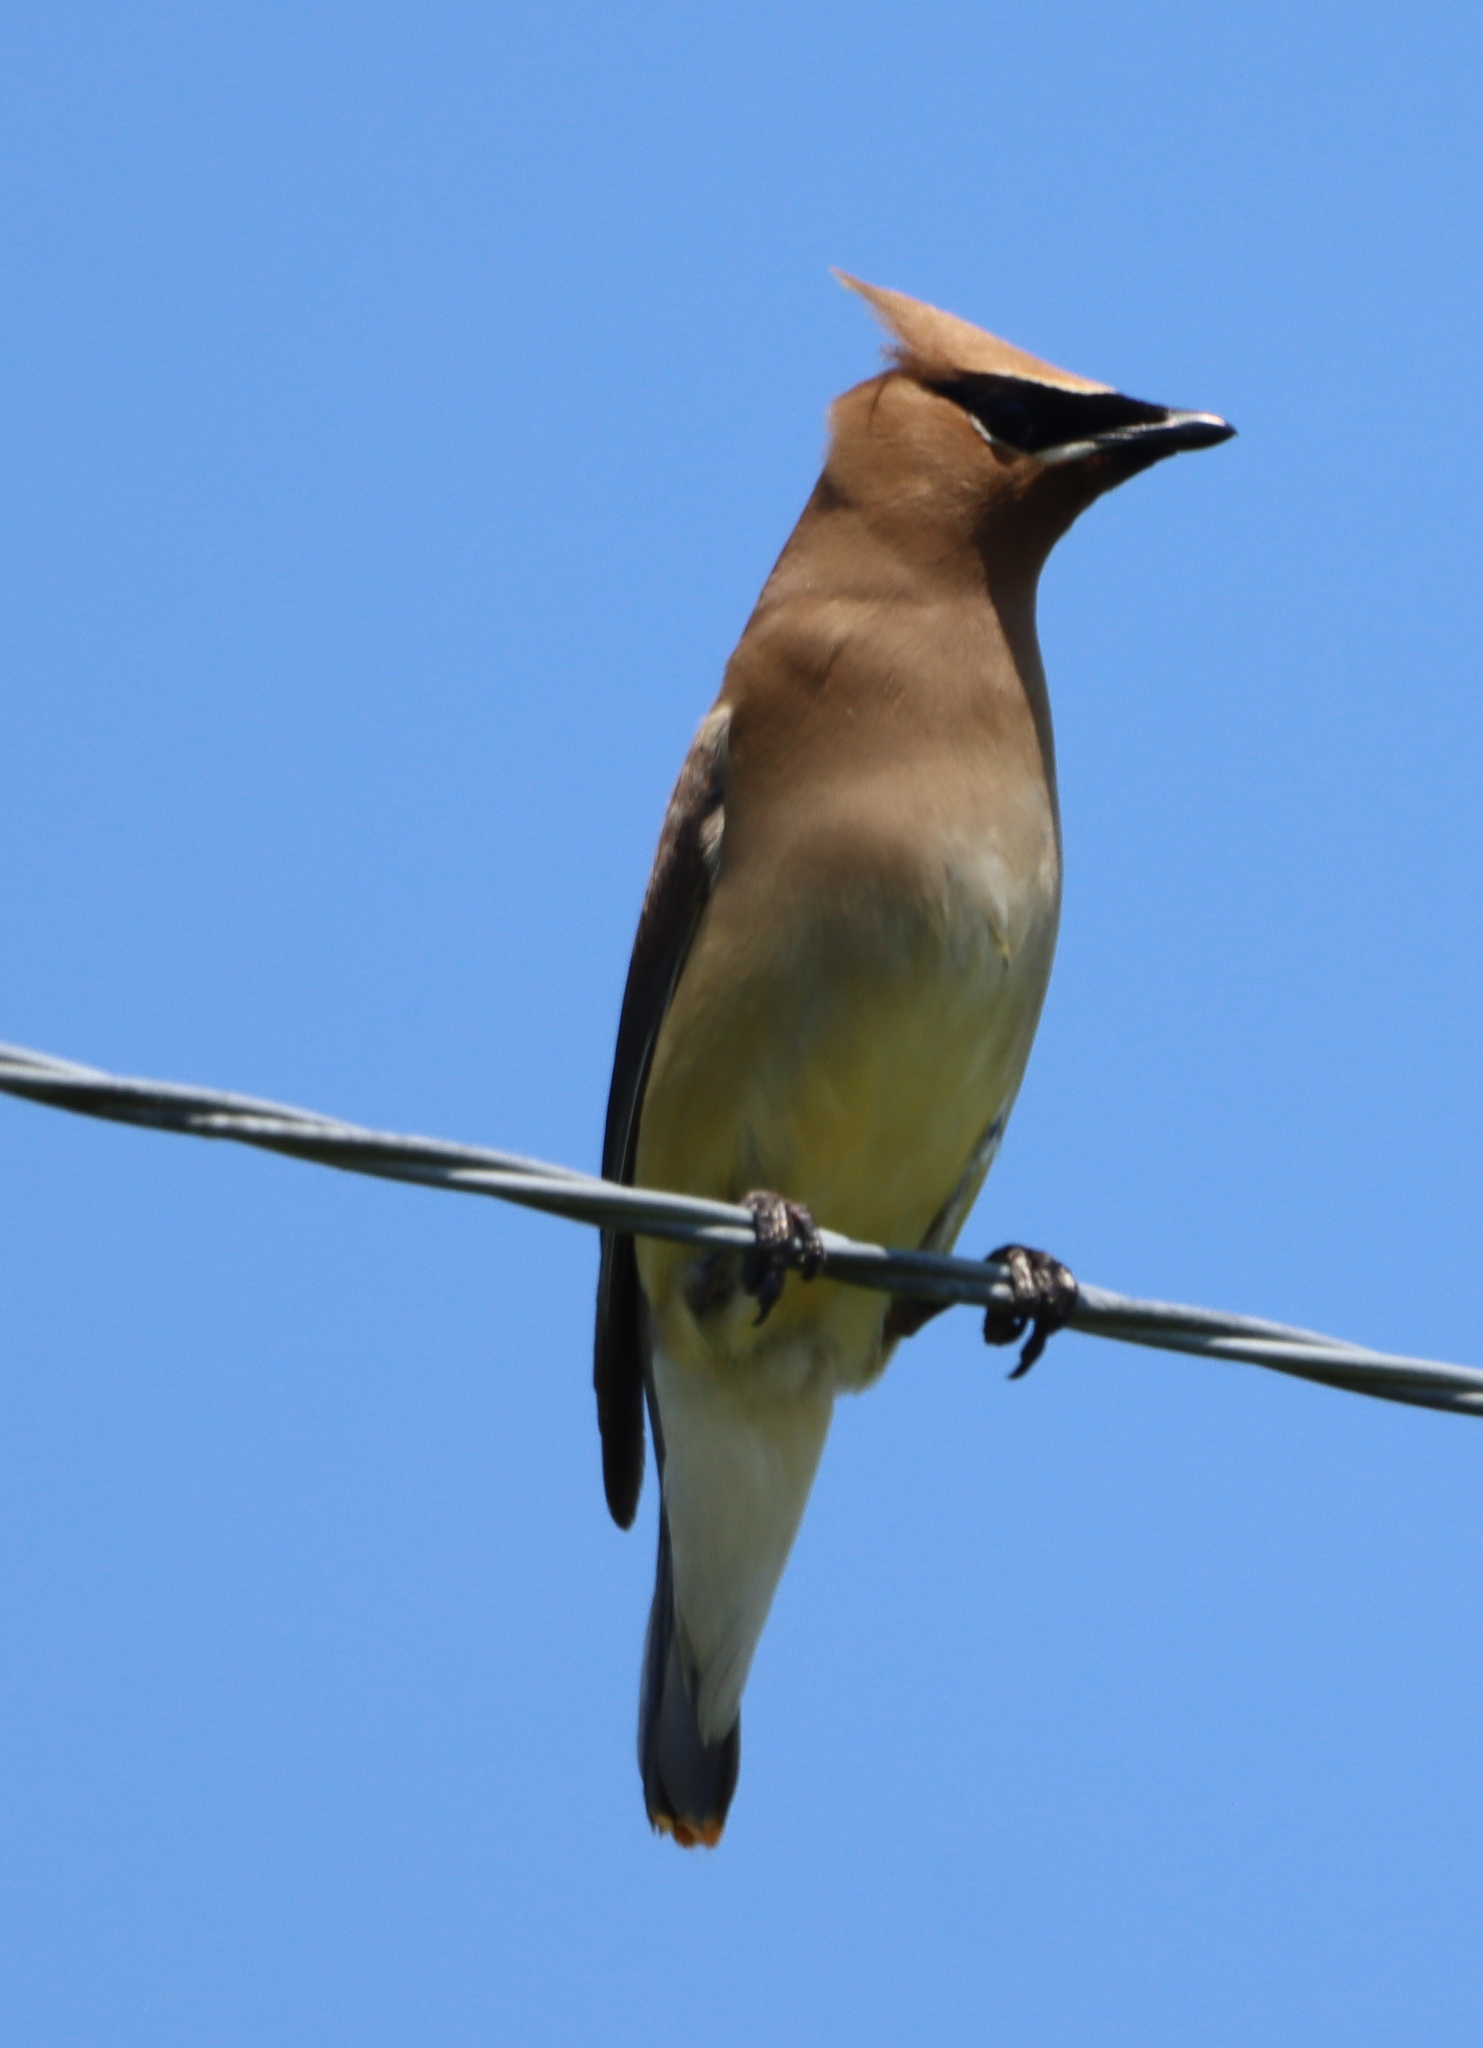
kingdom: Animalia
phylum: Chordata
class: Aves
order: Passeriformes
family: Bombycillidae
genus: Bombycilla
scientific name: Bombycilla cedrorum
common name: Cedar waxwing
